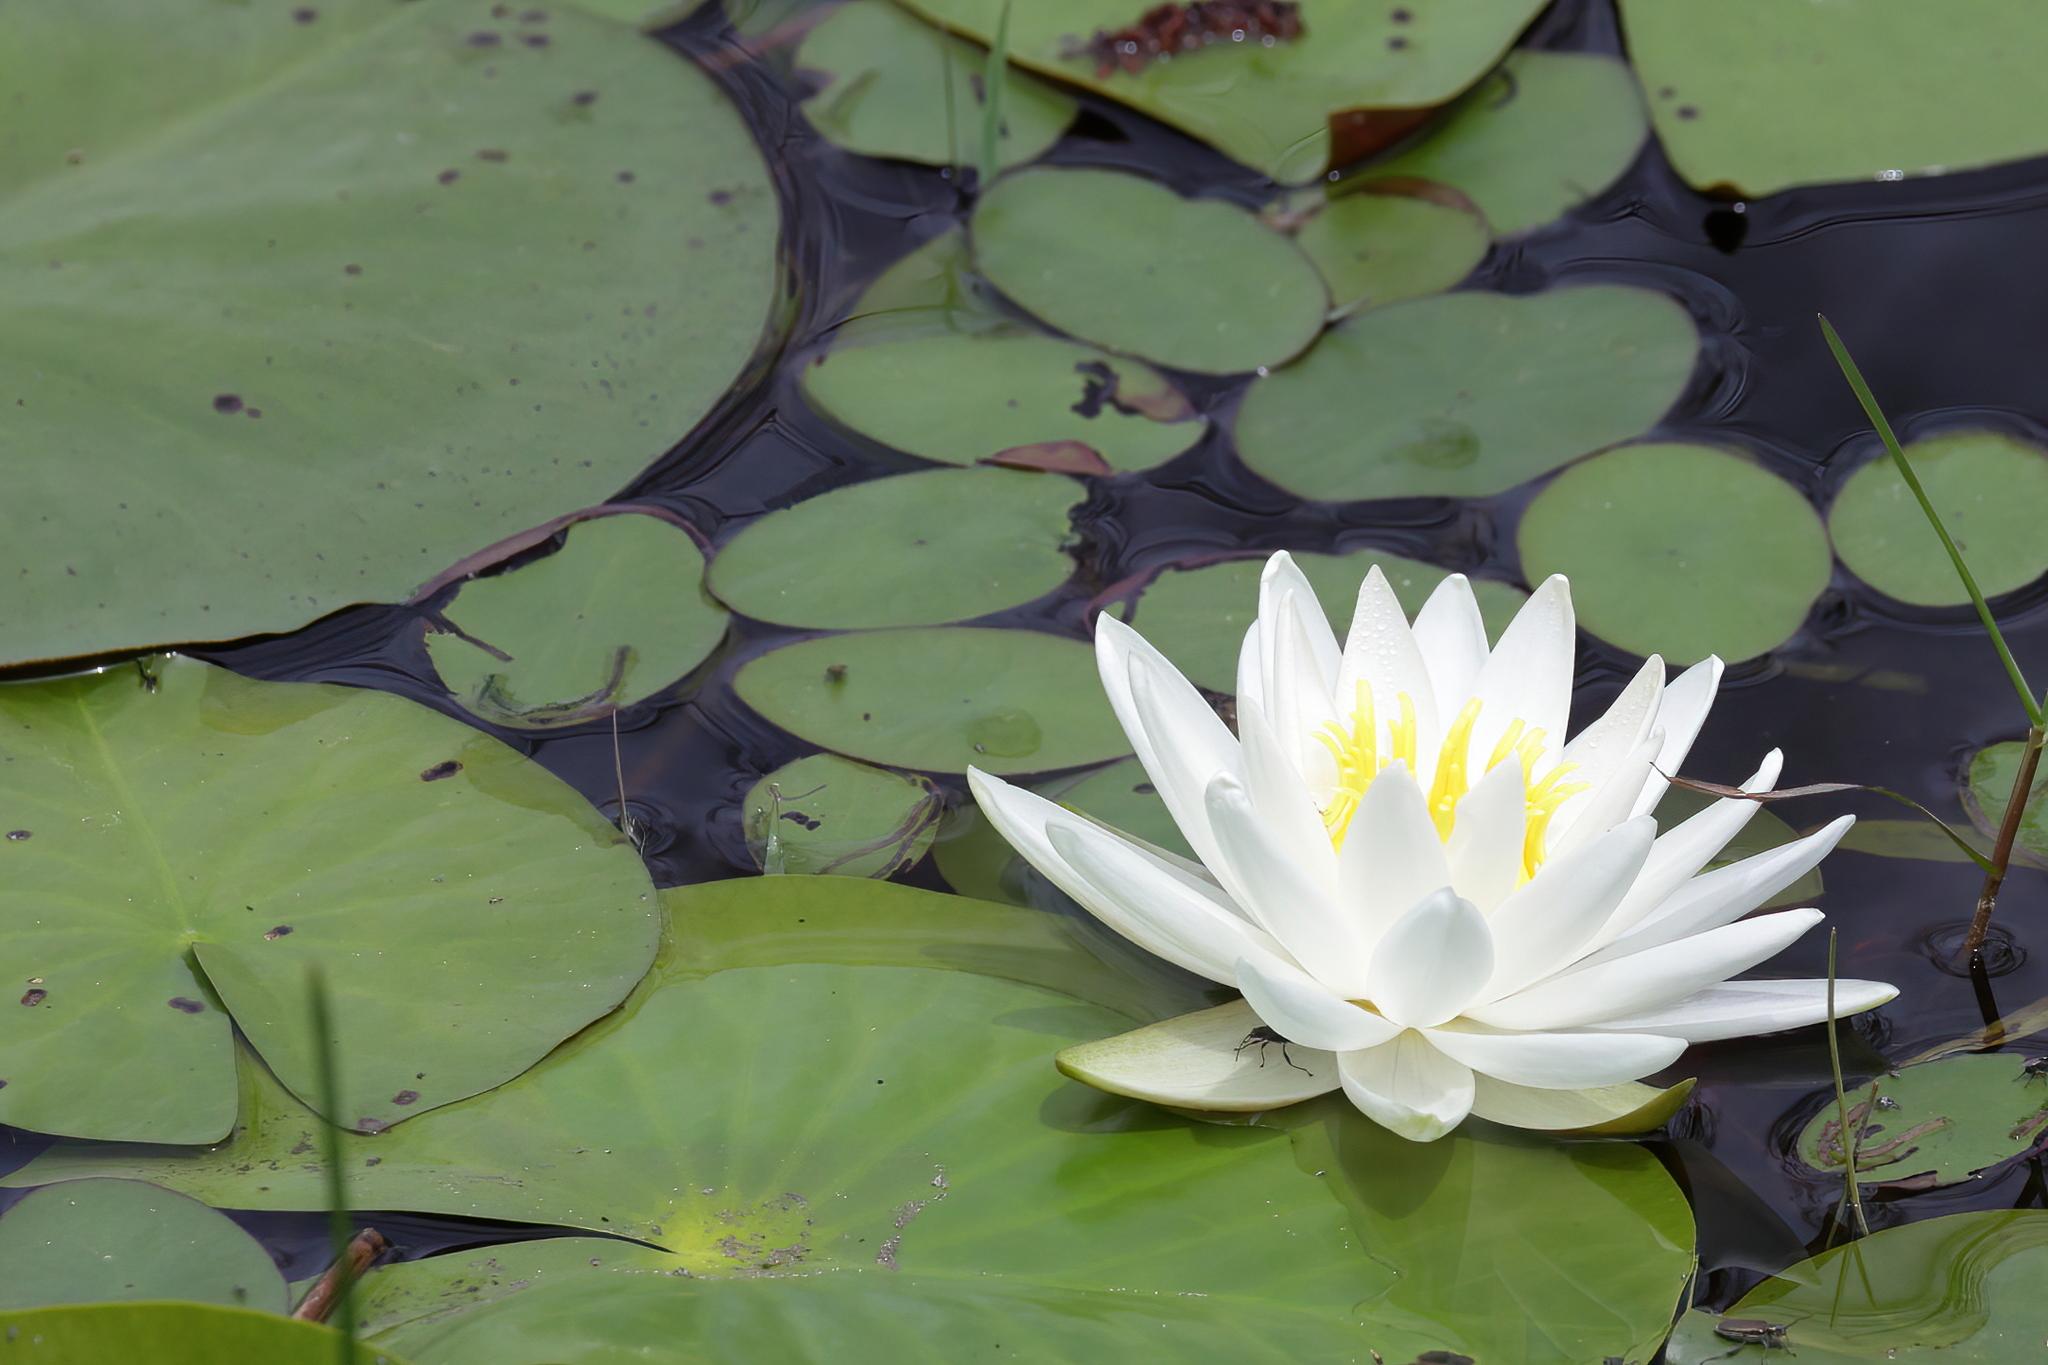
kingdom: Plantae
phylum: Tracheophyta
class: Magnoliopsida
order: Nymphaeales
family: Nymphaeaceae
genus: Nymphaea
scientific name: Nymphaea odorata
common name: Fragrant water-lily
